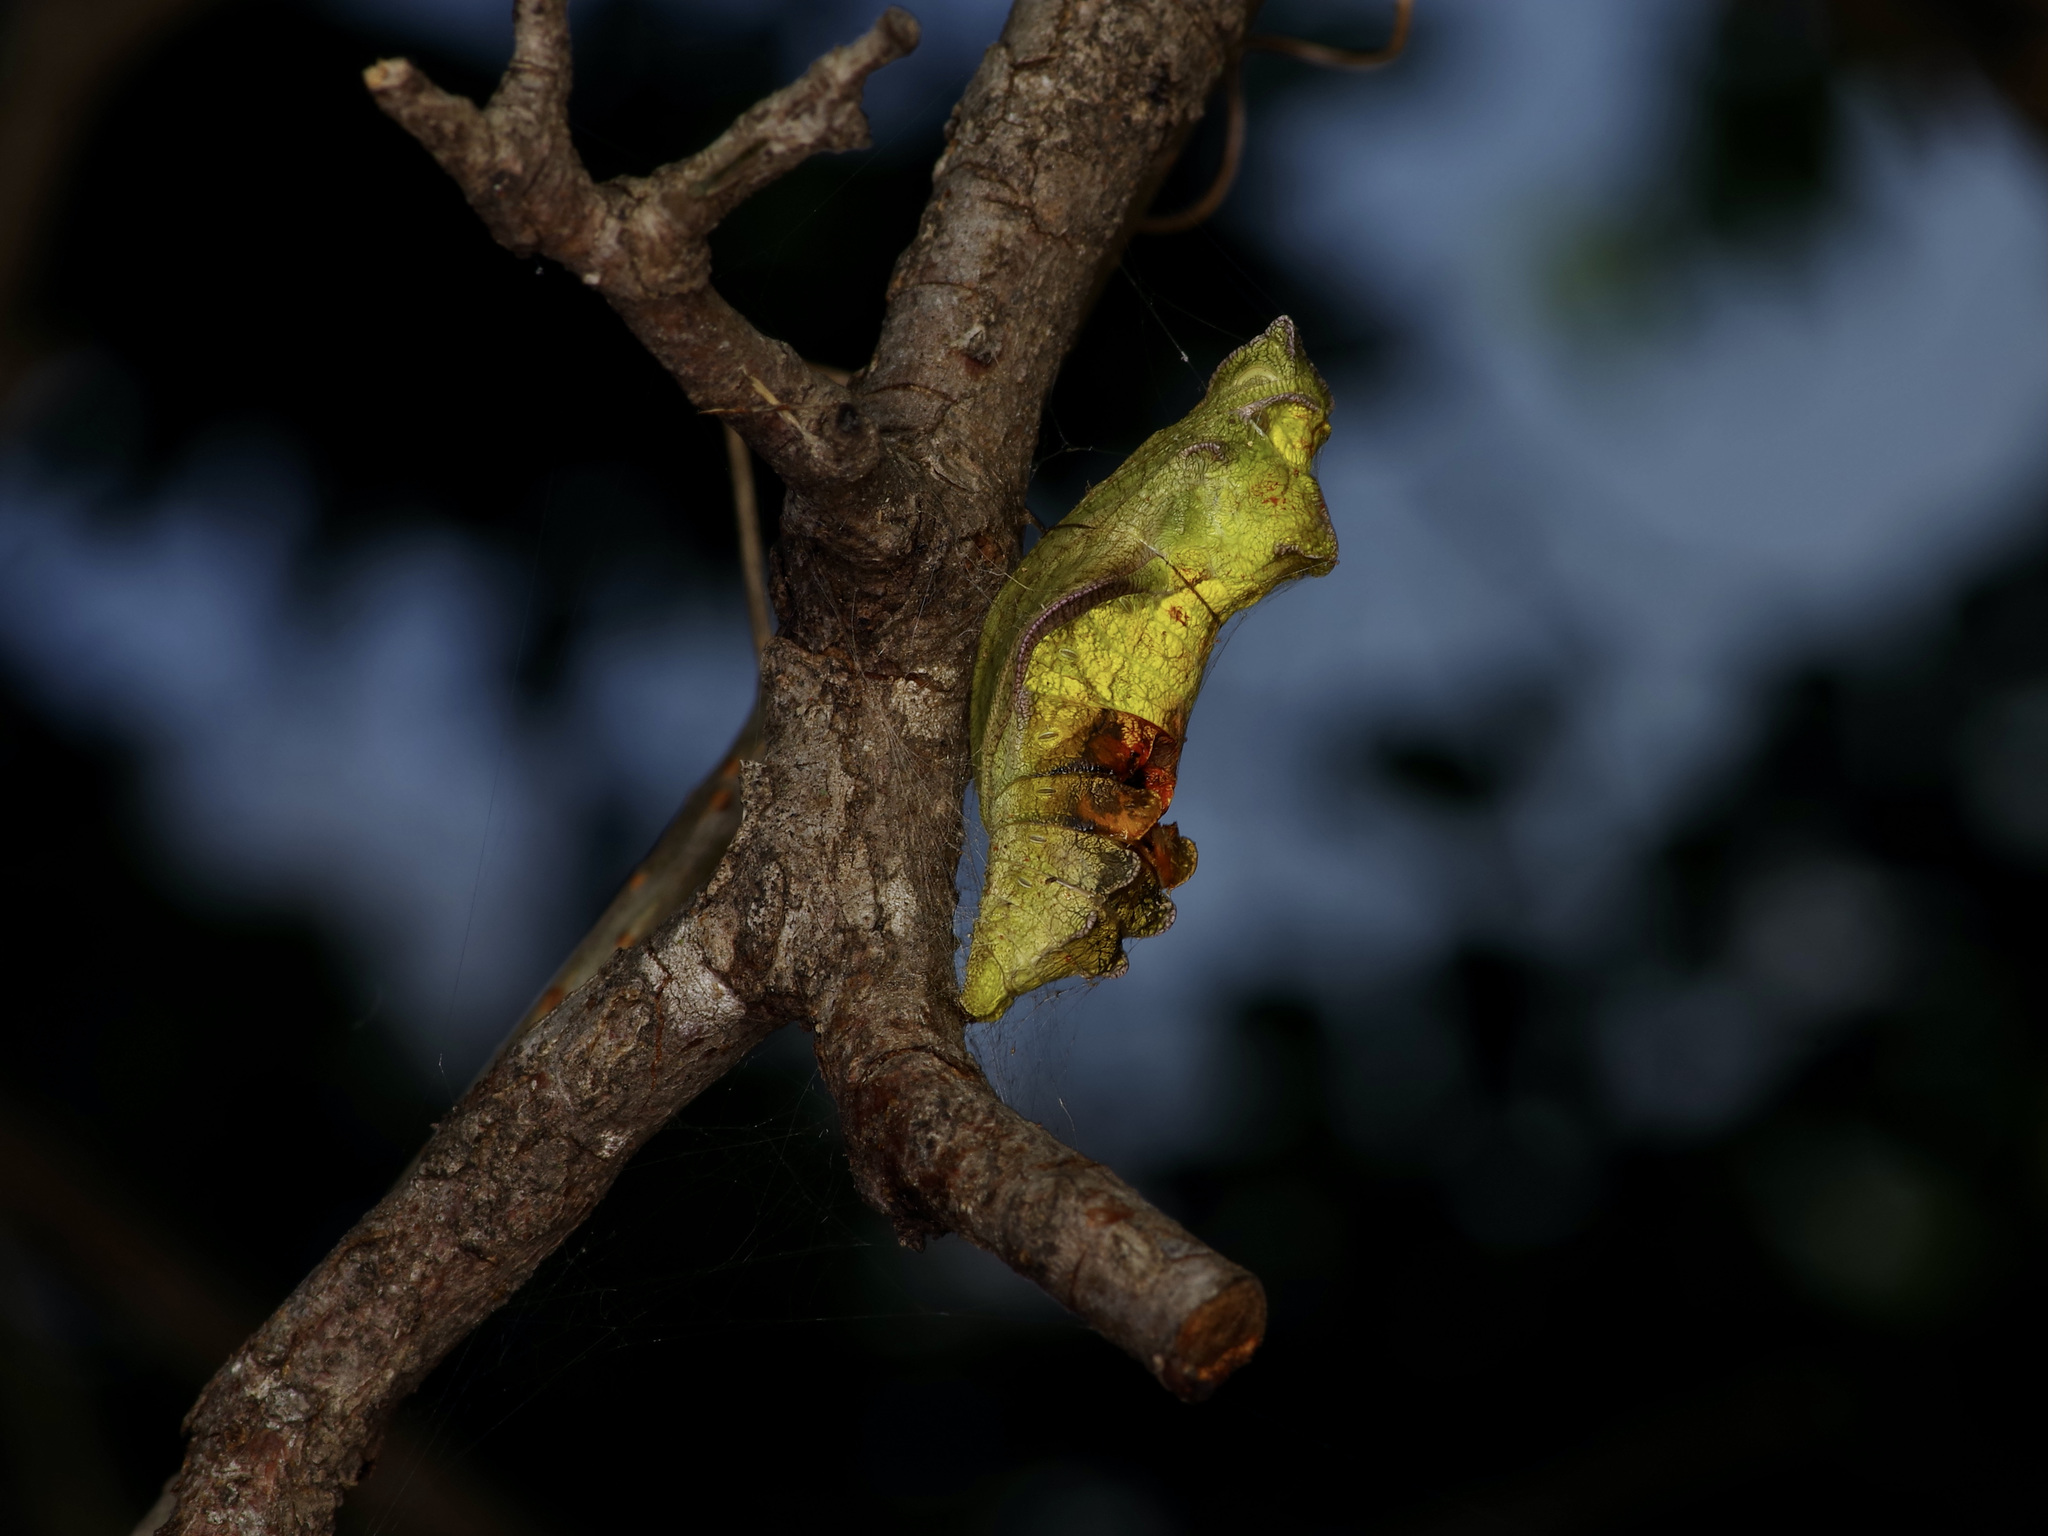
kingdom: Animalia
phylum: Arthropoda
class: Insecta
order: Lepidoptera
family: Papilionidae
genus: Battus
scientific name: Battus philenor
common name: Pipevine swallowtail
